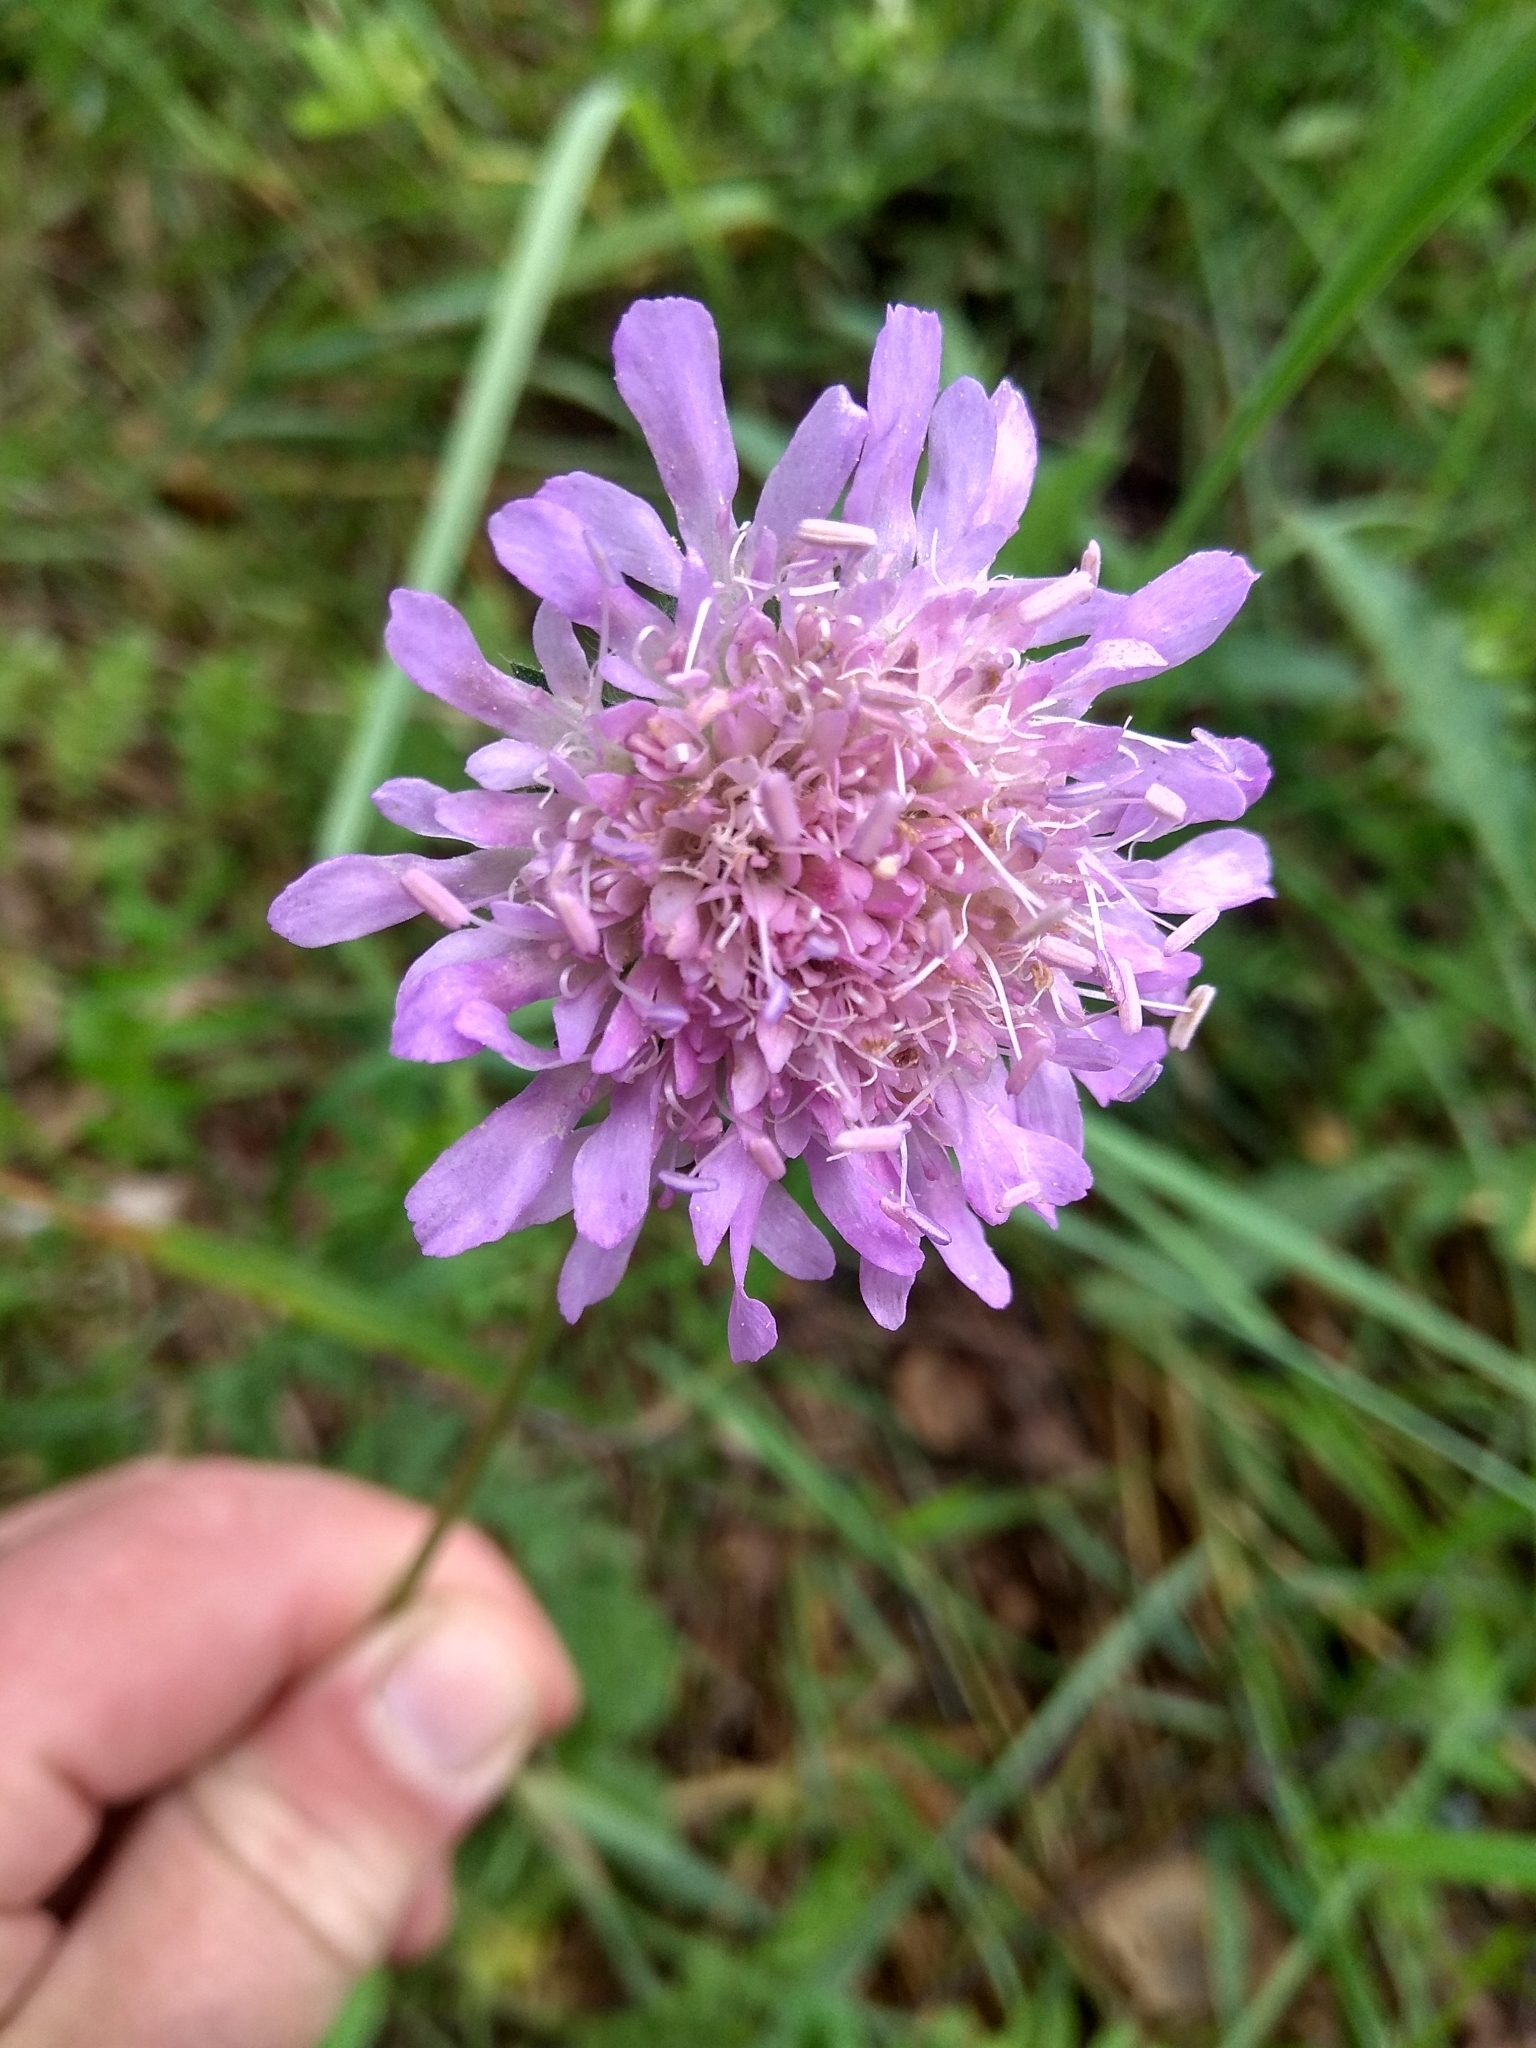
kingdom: Plantae
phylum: Tracheophyta
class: Magnoliopsida
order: Dipsacales
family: Caprifoliaceae
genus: Knautia
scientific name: Knautia arvensis
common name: Field scabiosa
